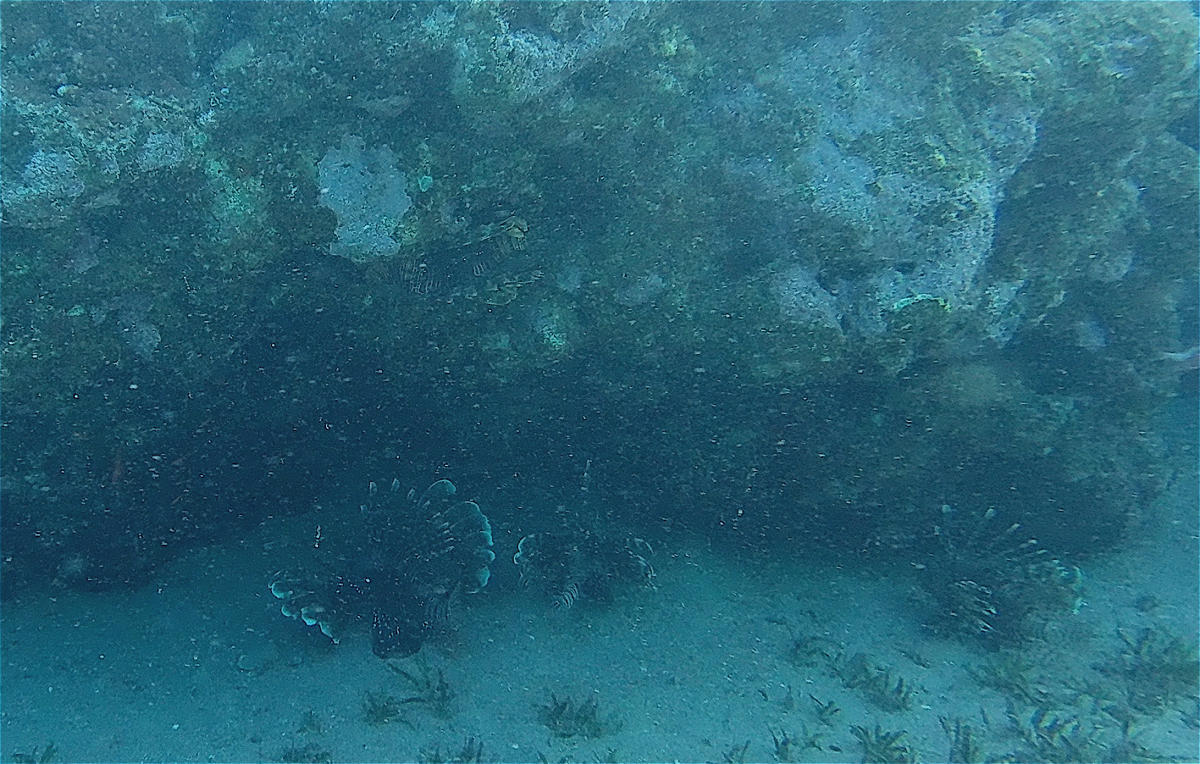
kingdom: Animalia
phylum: Chordata
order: Scorpaeniformes
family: Scorpaenidae
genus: Pterois
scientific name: Pterois miles
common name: Devil firefish
